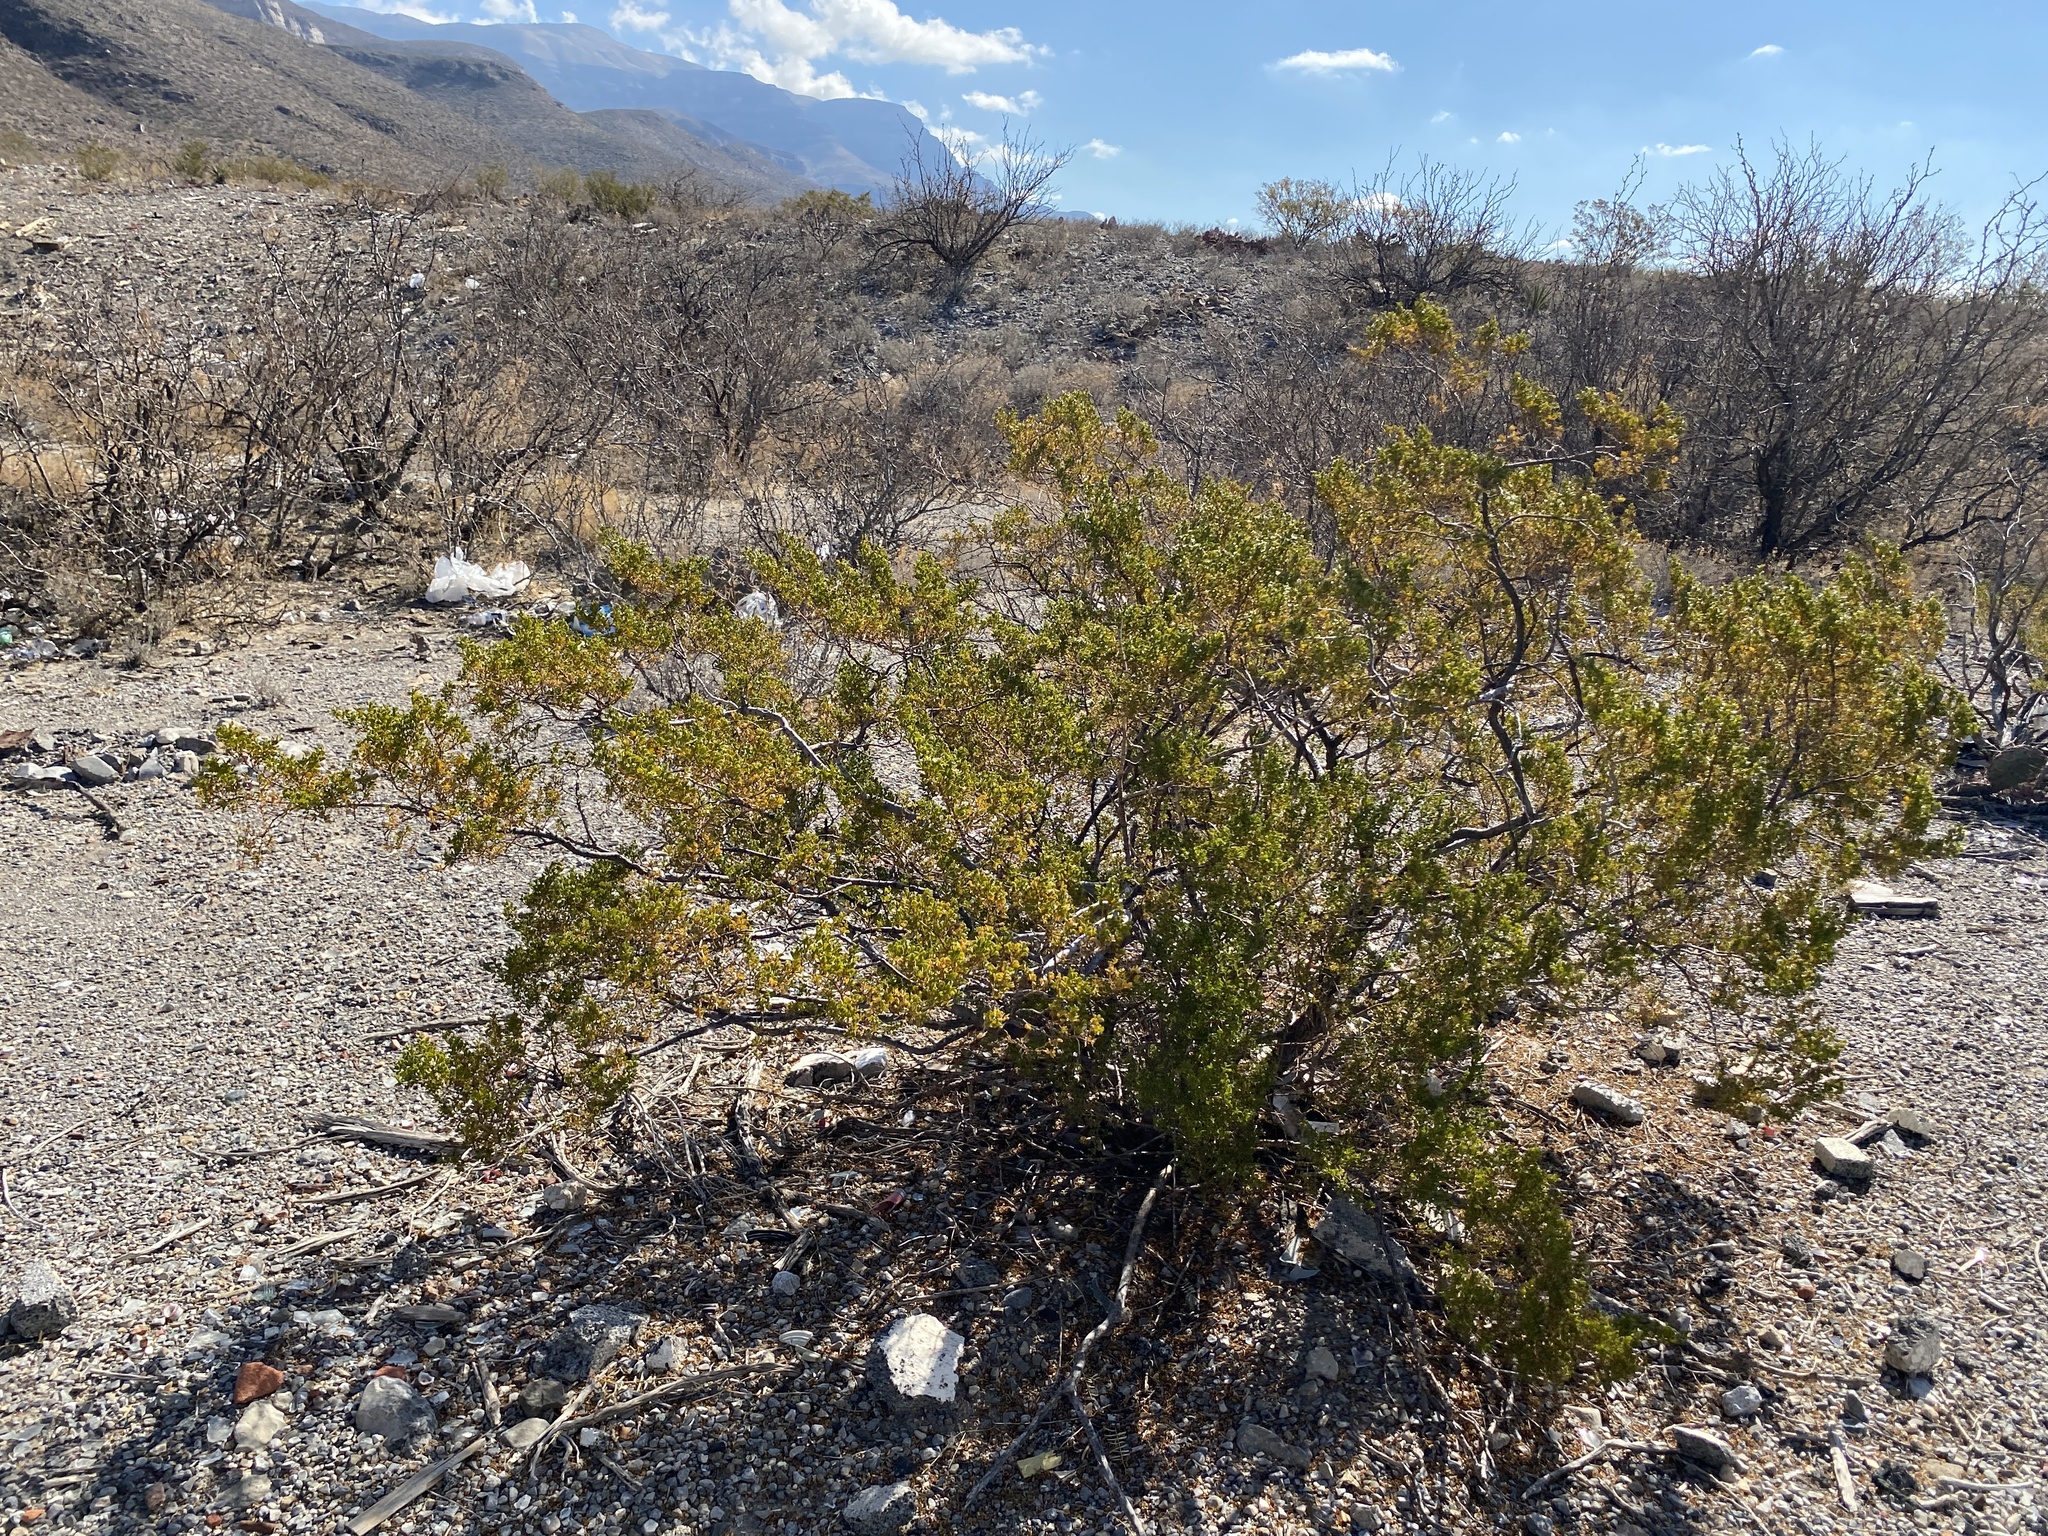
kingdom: Plantae
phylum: Tracheophyta
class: Magnoliopsida
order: Zygophyllales
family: Zygophyllaceae
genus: Larrea
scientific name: Larrea tridentata
